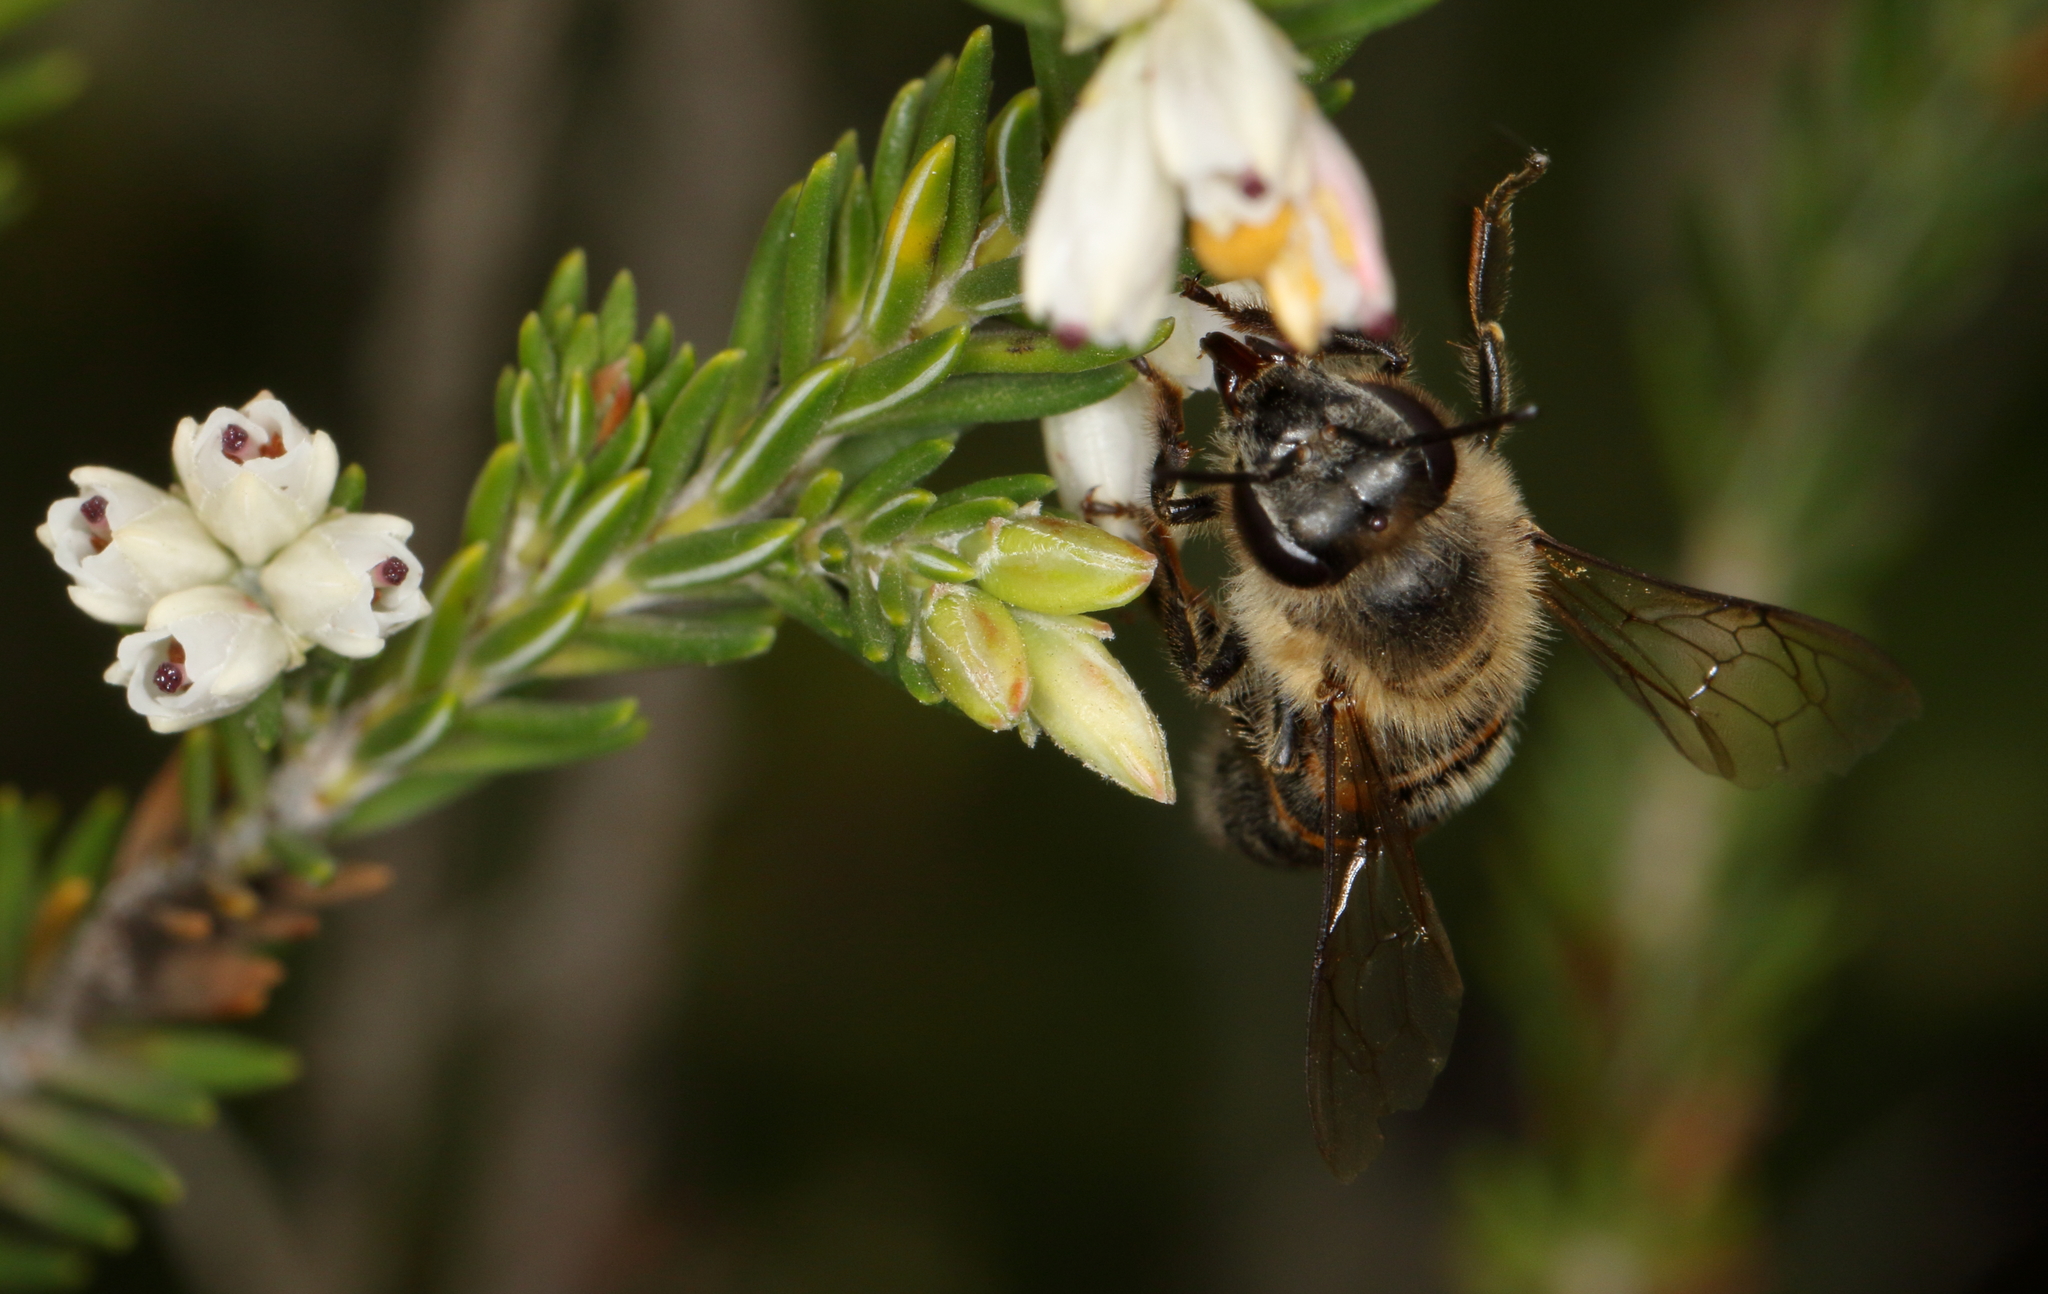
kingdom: Animalia
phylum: Arthropoda
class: Insecta
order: Hymenoptera
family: Apidae
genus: Apis
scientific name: Apis mellifera
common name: Honey bee
